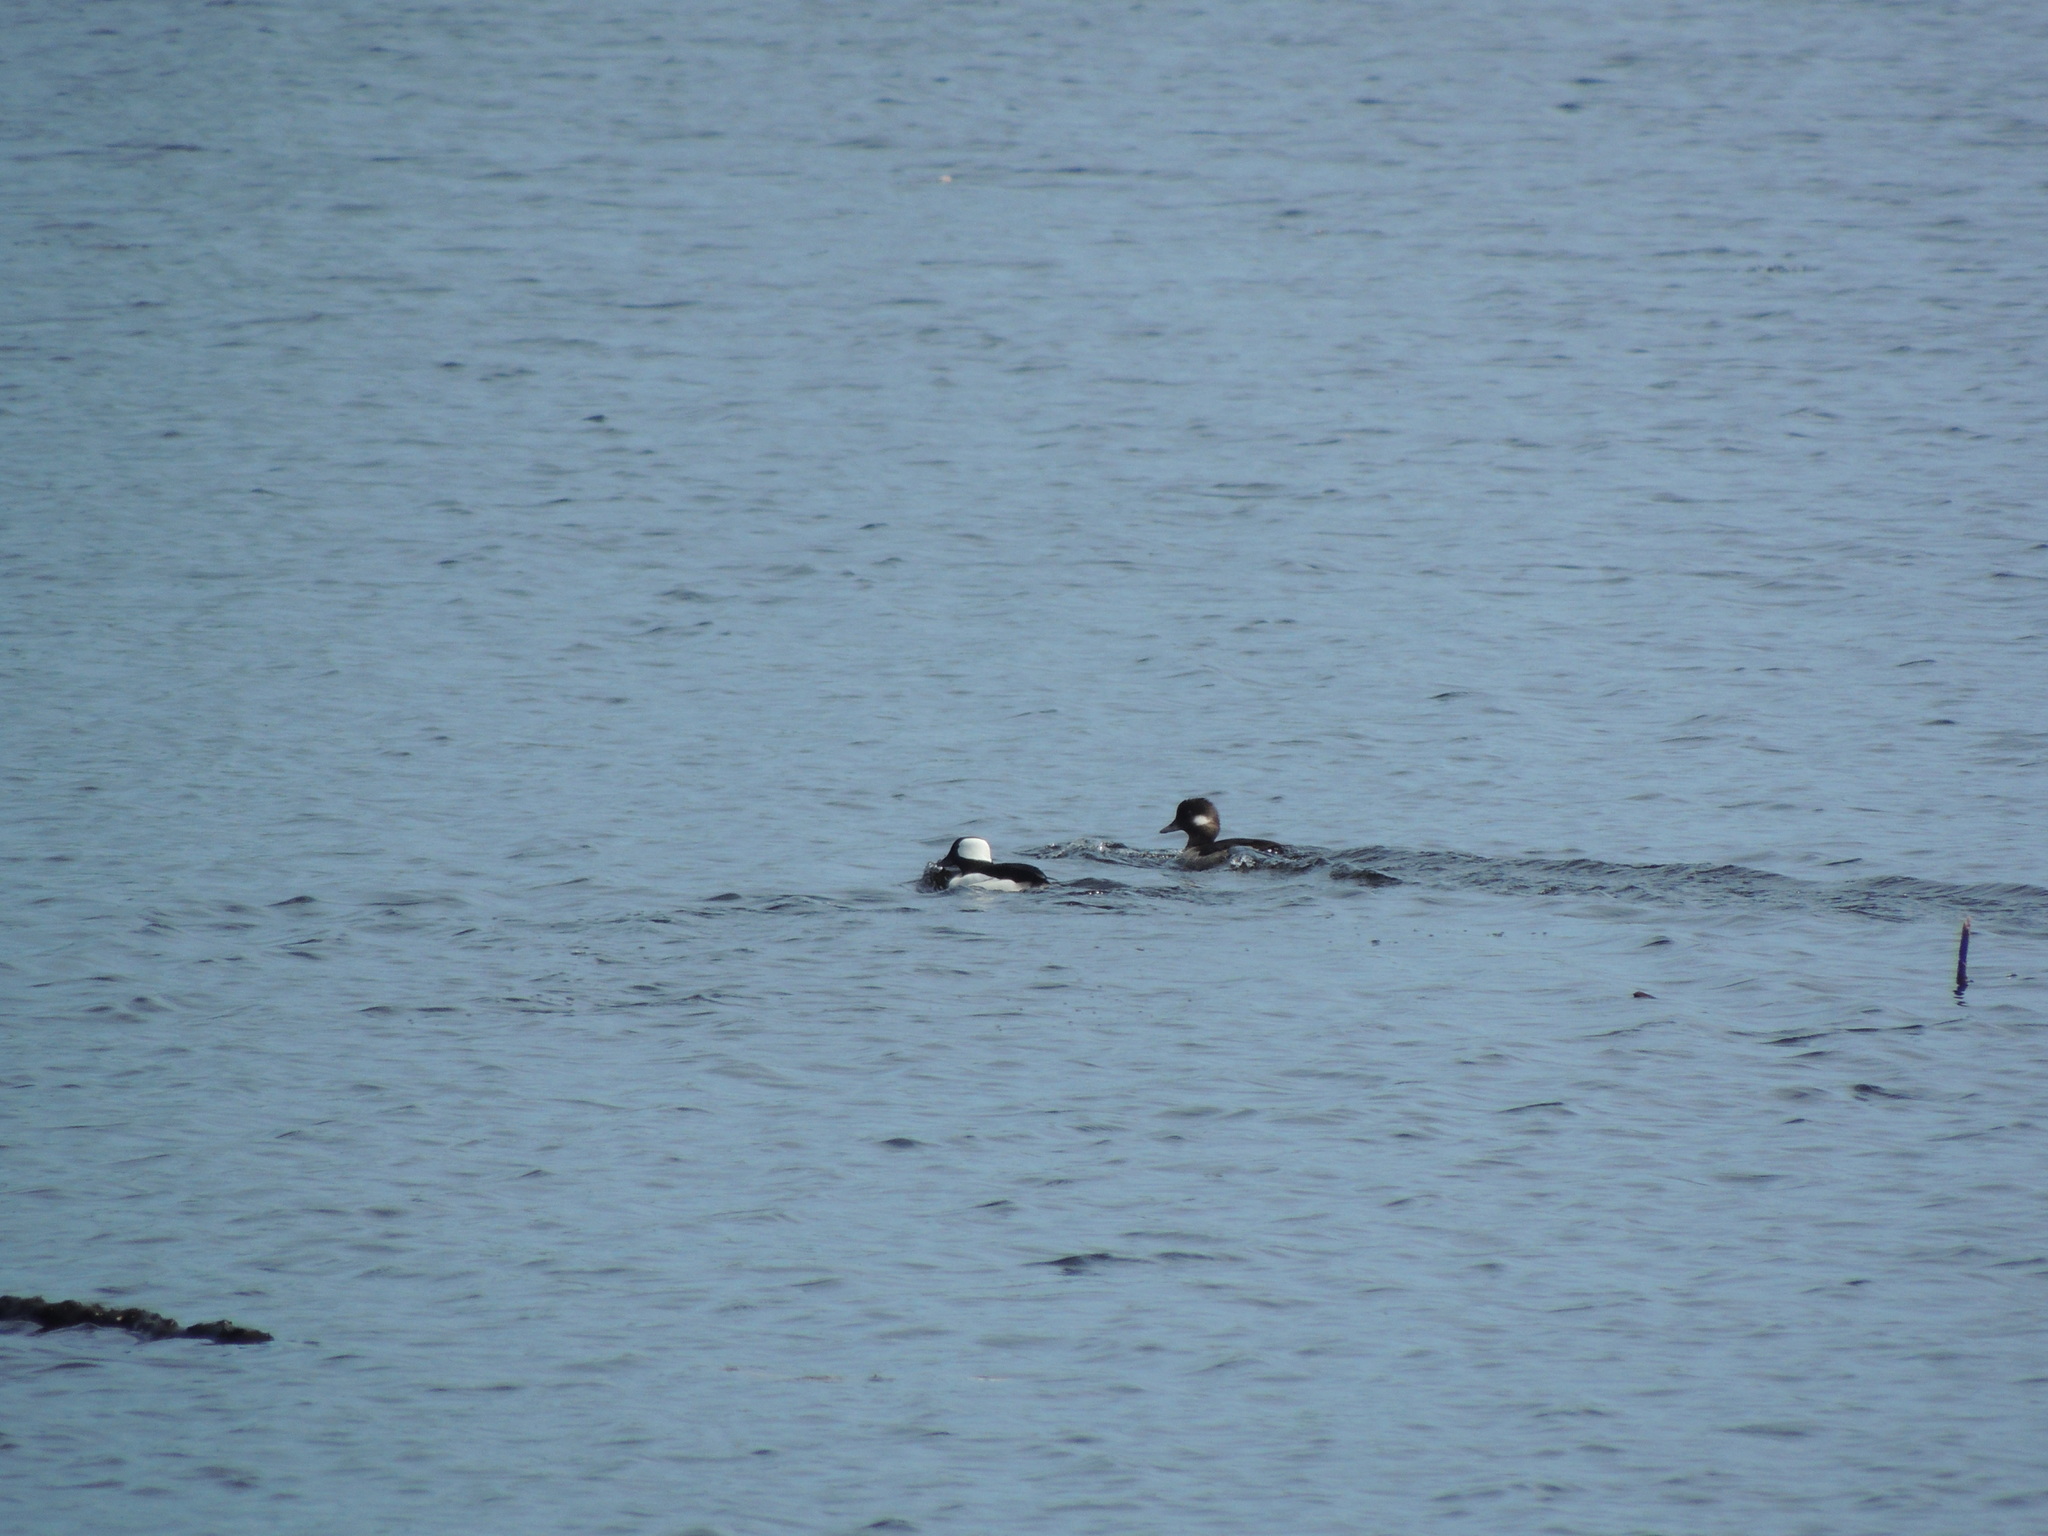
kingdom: Animalia
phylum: Chordata
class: Aves
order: Anseriformes
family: Anatidae
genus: Bucephala
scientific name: Bucephala albeola
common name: Bufflehead
